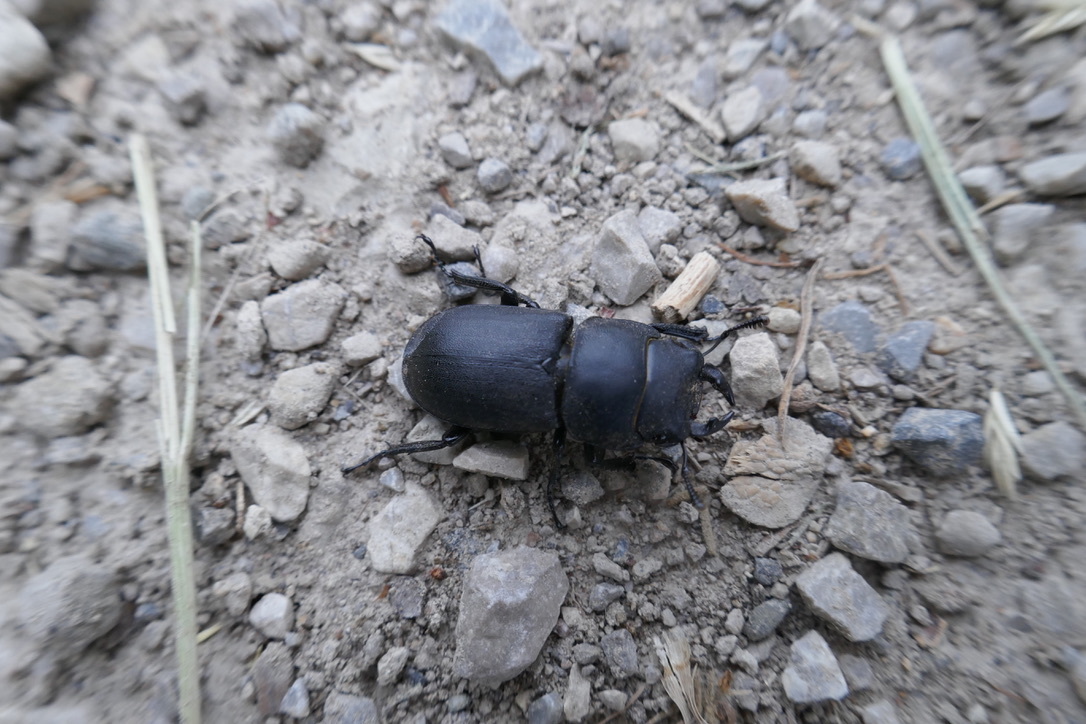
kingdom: Animalia
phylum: Arthropoda
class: Insecta
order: Coleoptera
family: Lucanidae
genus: Dorcus
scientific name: Dorcus parallelipipedus
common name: Lesser stag beetle
